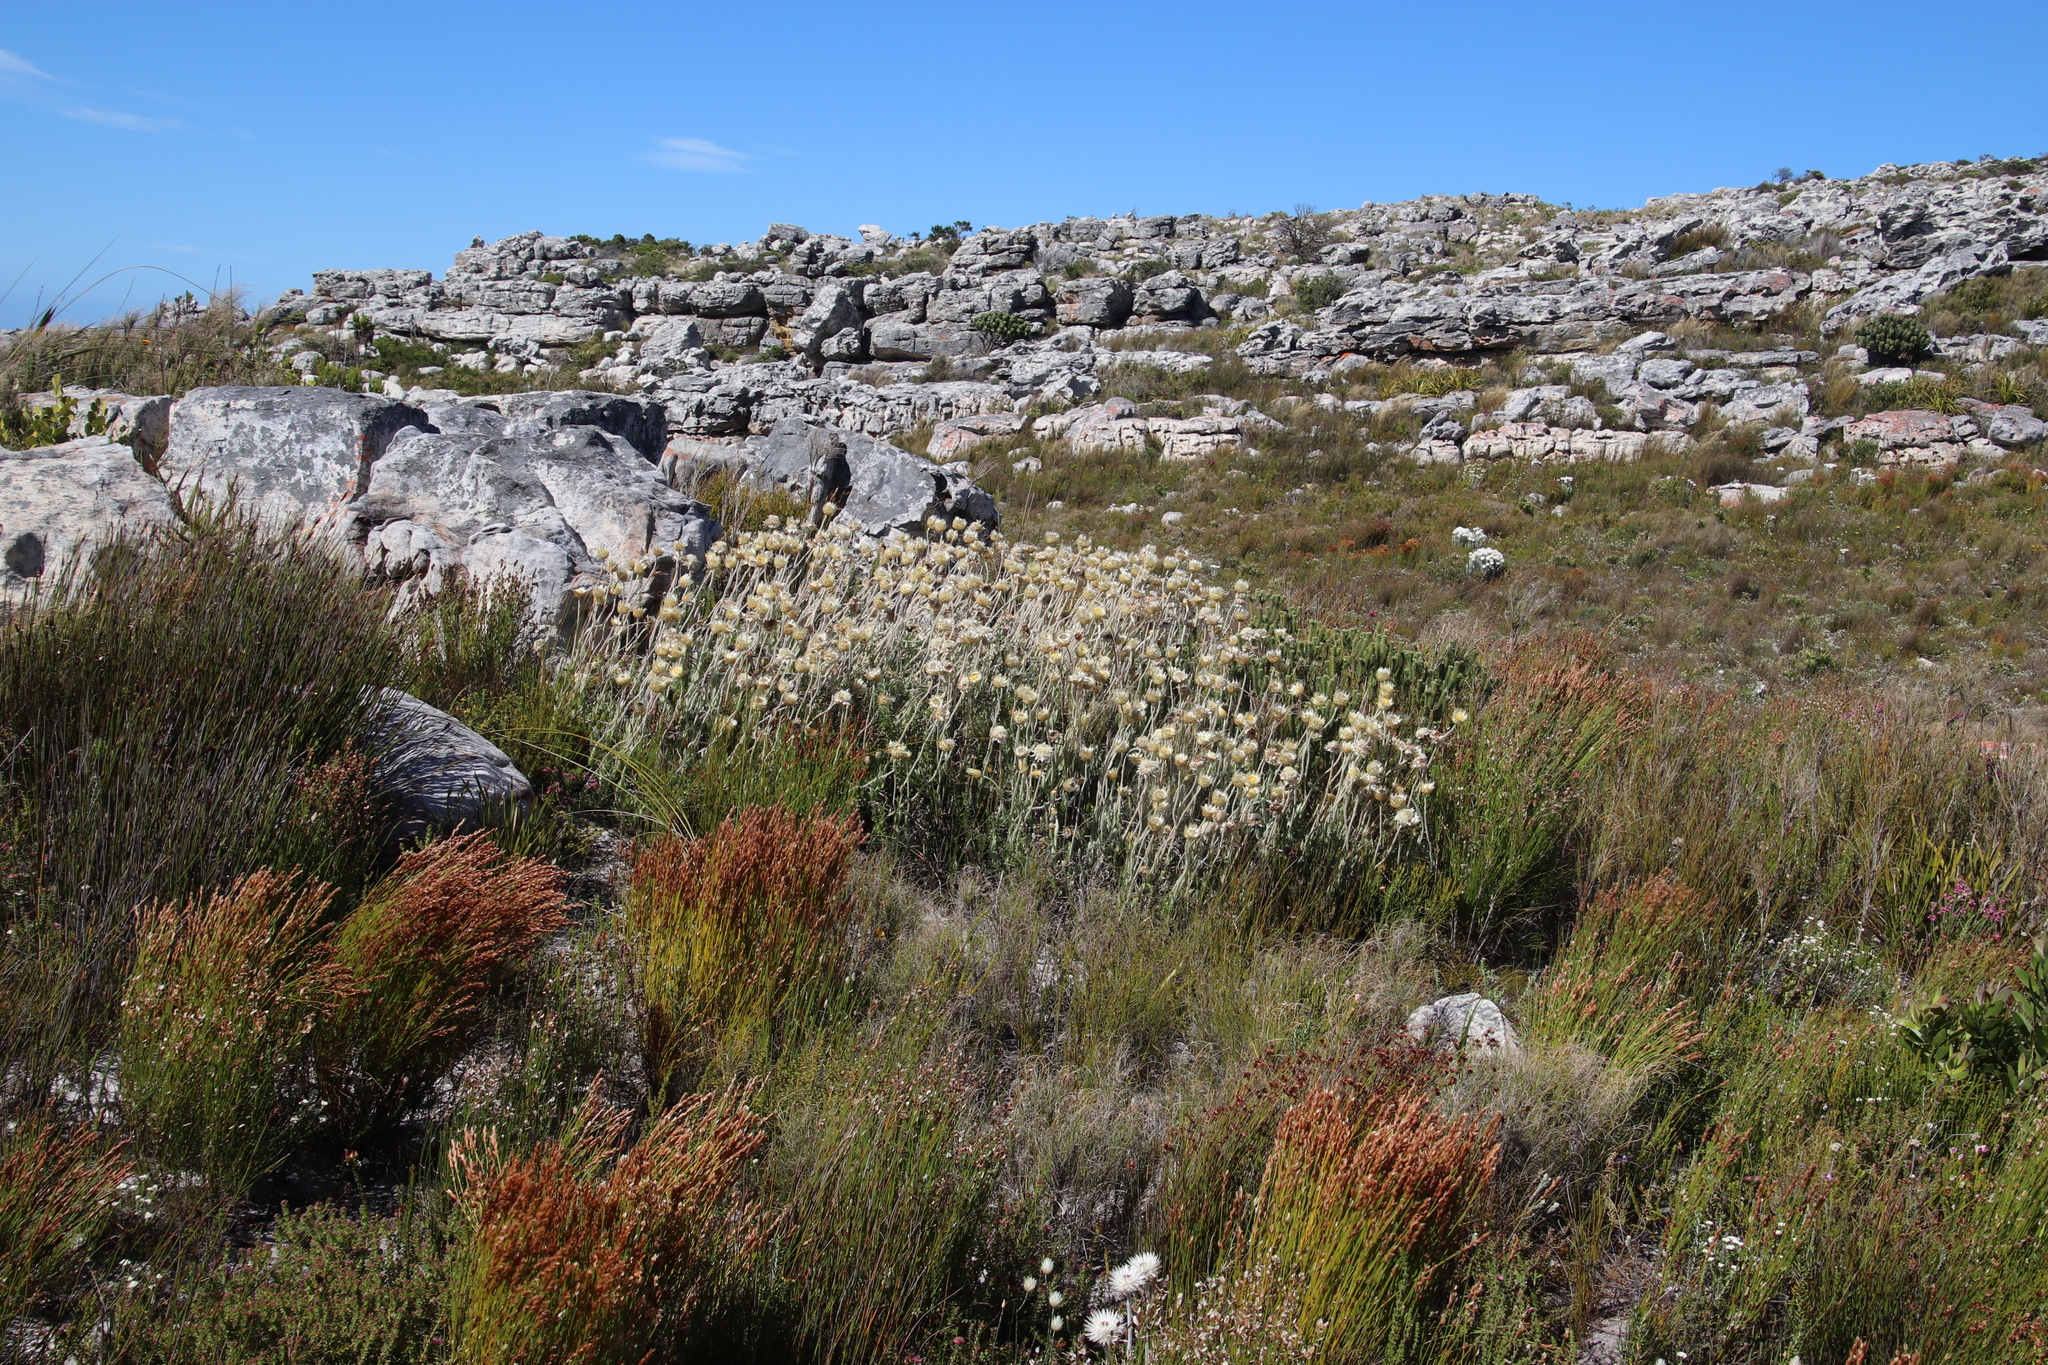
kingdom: Plantae
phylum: Tracheophyta
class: Magnoliopsida
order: Asterales
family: Asteraceae
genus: Syncarpha
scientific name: Syncarpha speciosissima
